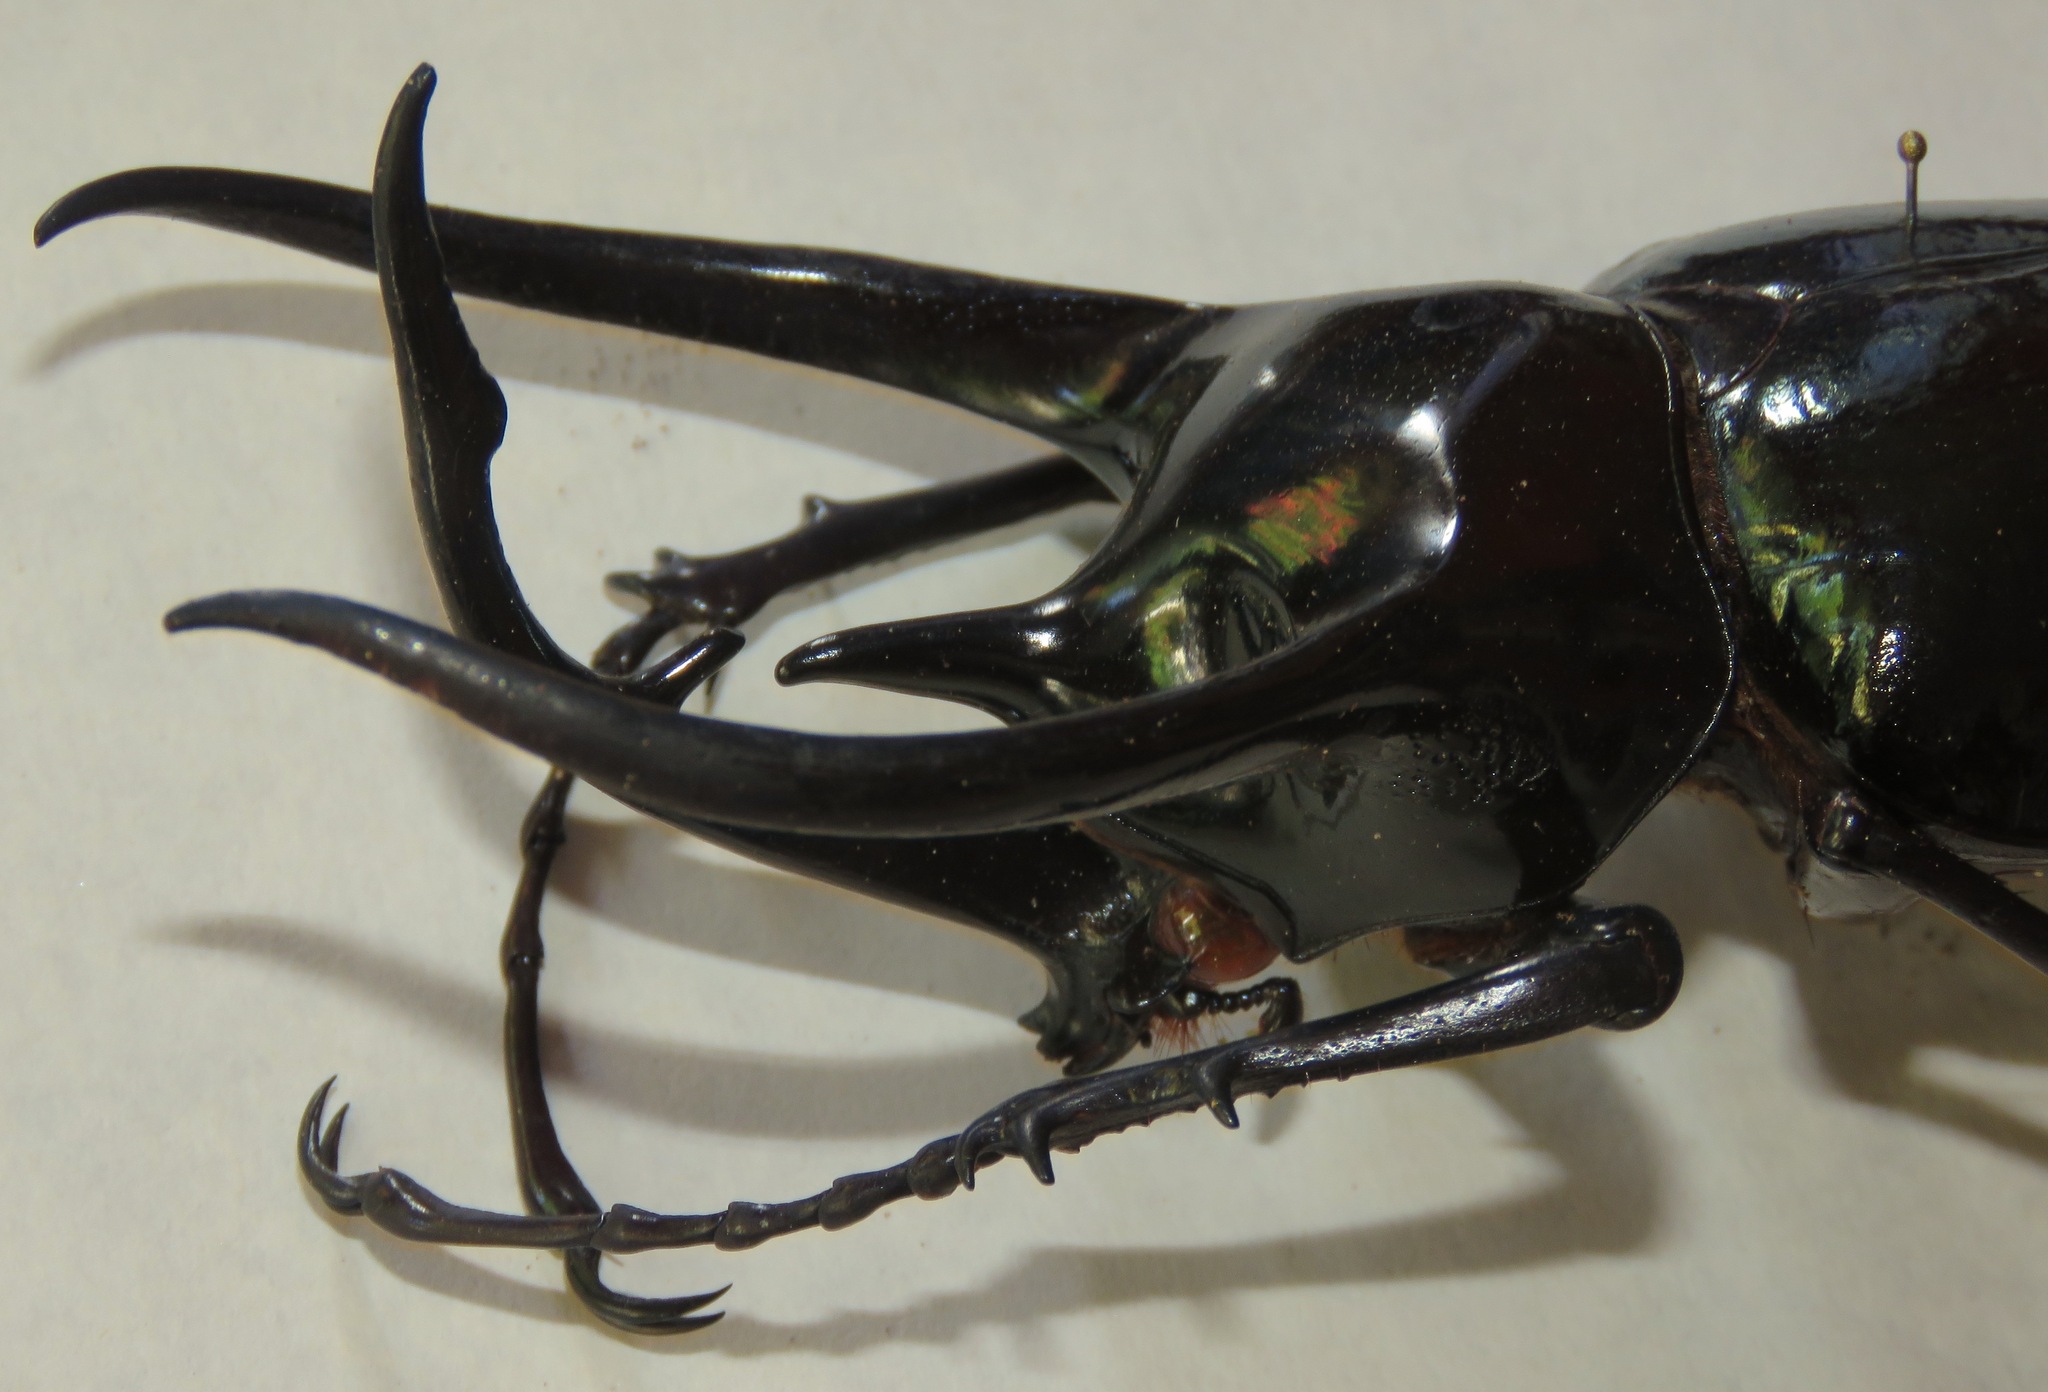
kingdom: Animalia
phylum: Arthropoda
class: Insecta
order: Coleoptera
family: Scarabaeidae
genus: Chalcosoma
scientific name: Chalcosoma chiron
